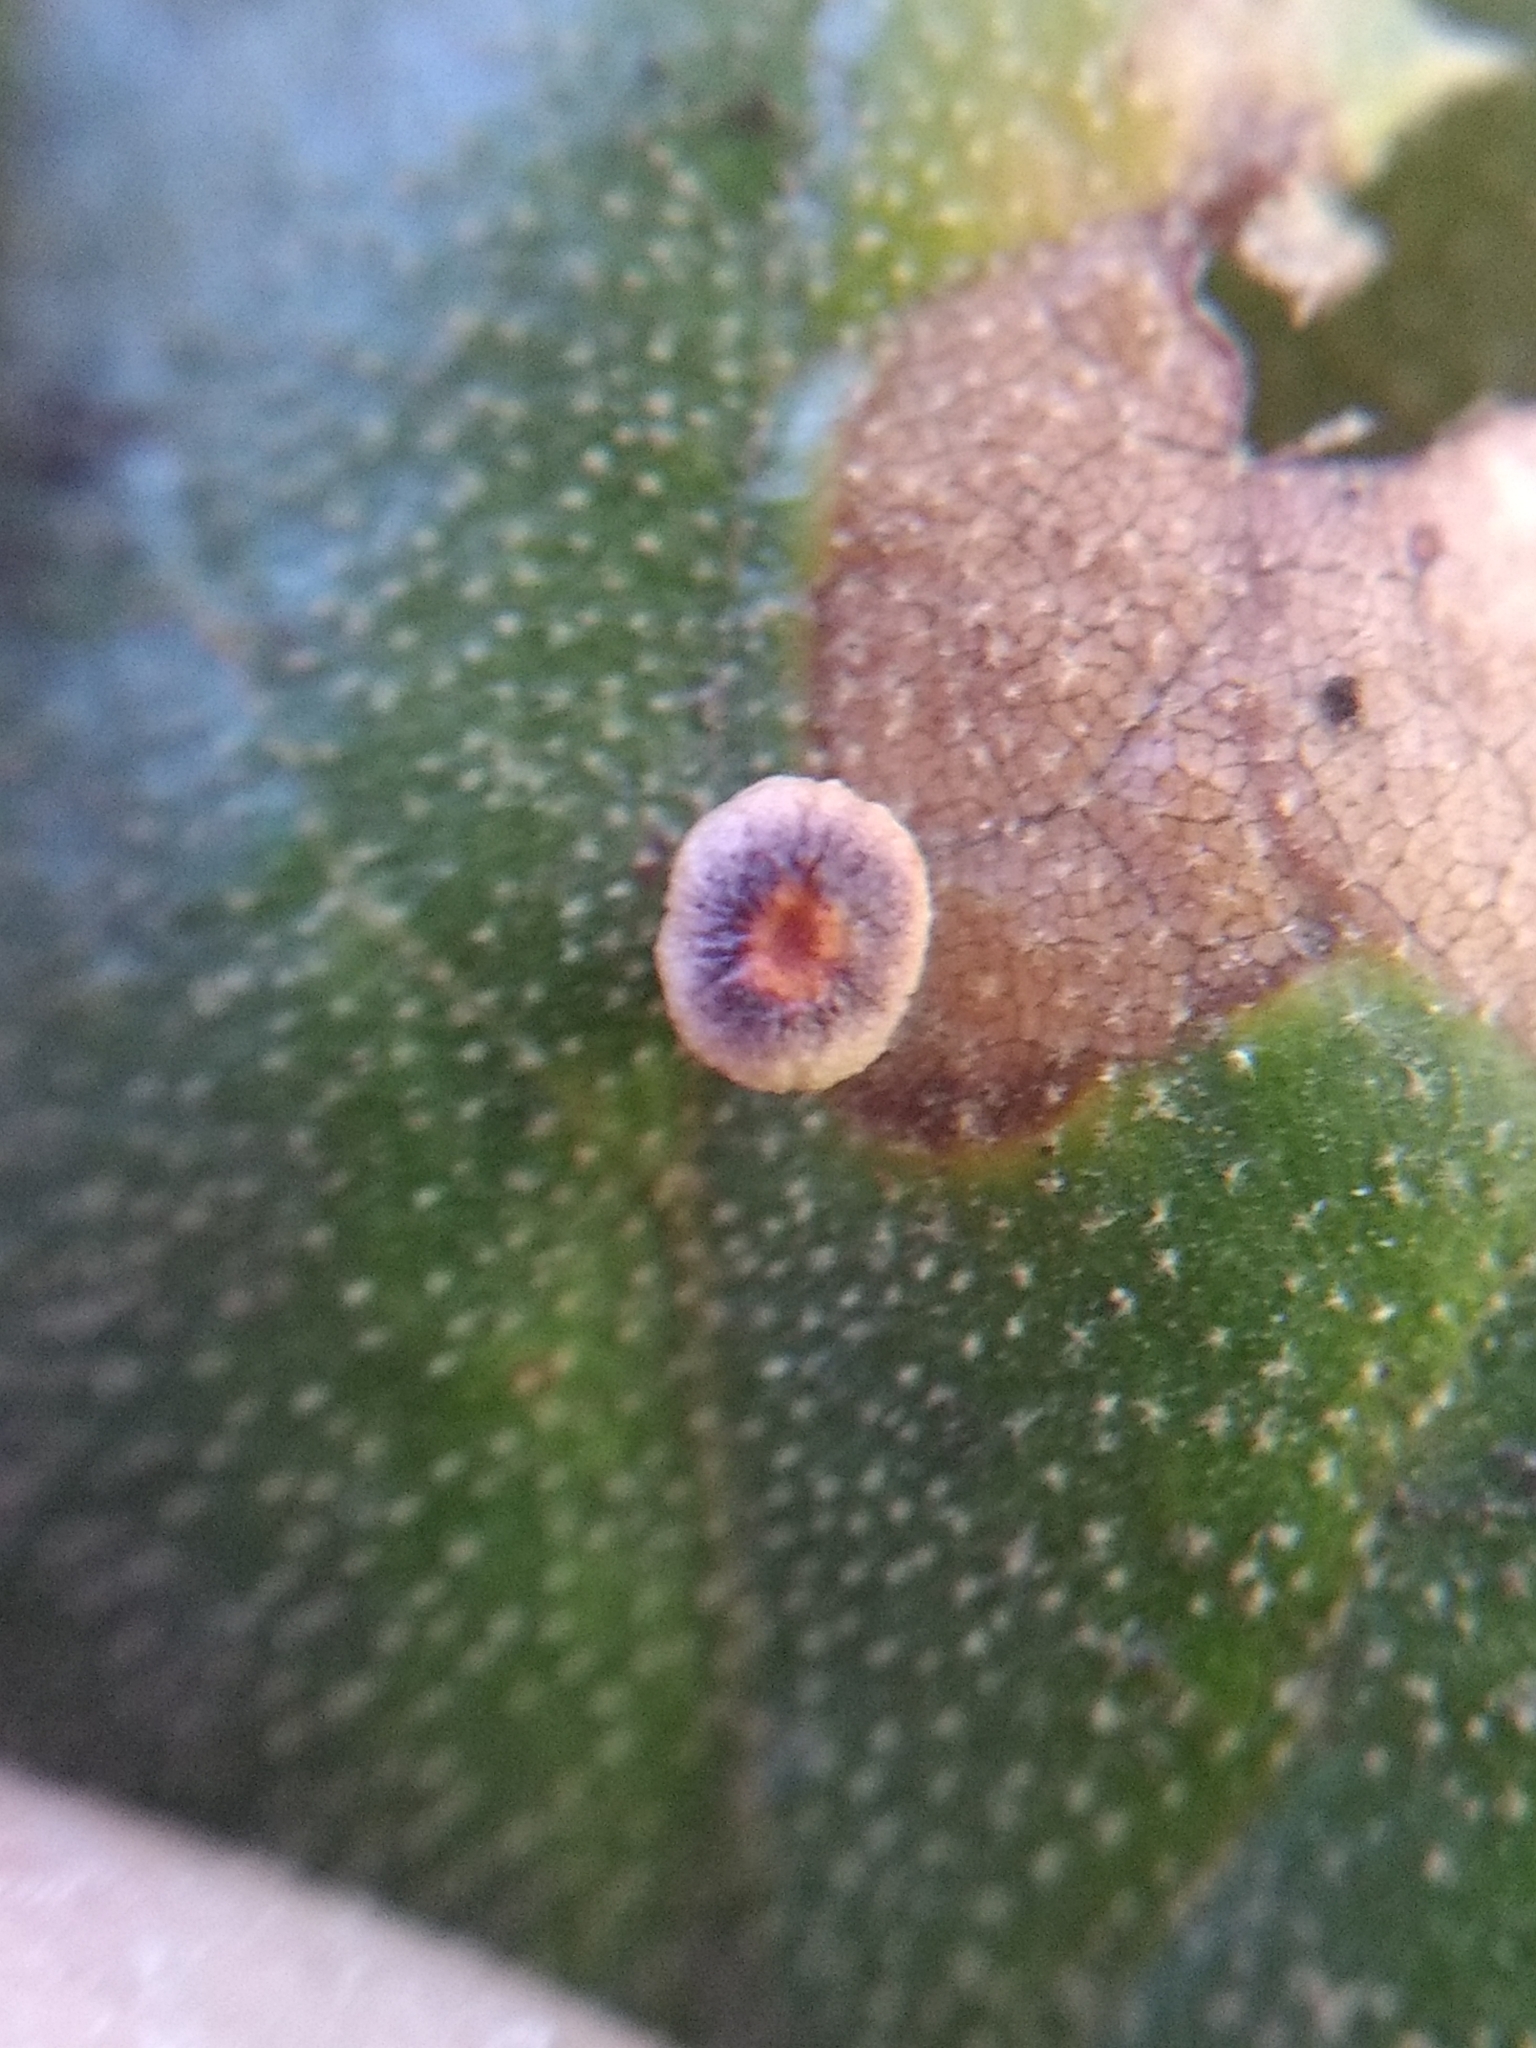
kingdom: Animalia
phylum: Arthropoda
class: Insecta
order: Hymenoptera
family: Cynipidae
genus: Dryocosmus
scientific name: Dryocosmus
